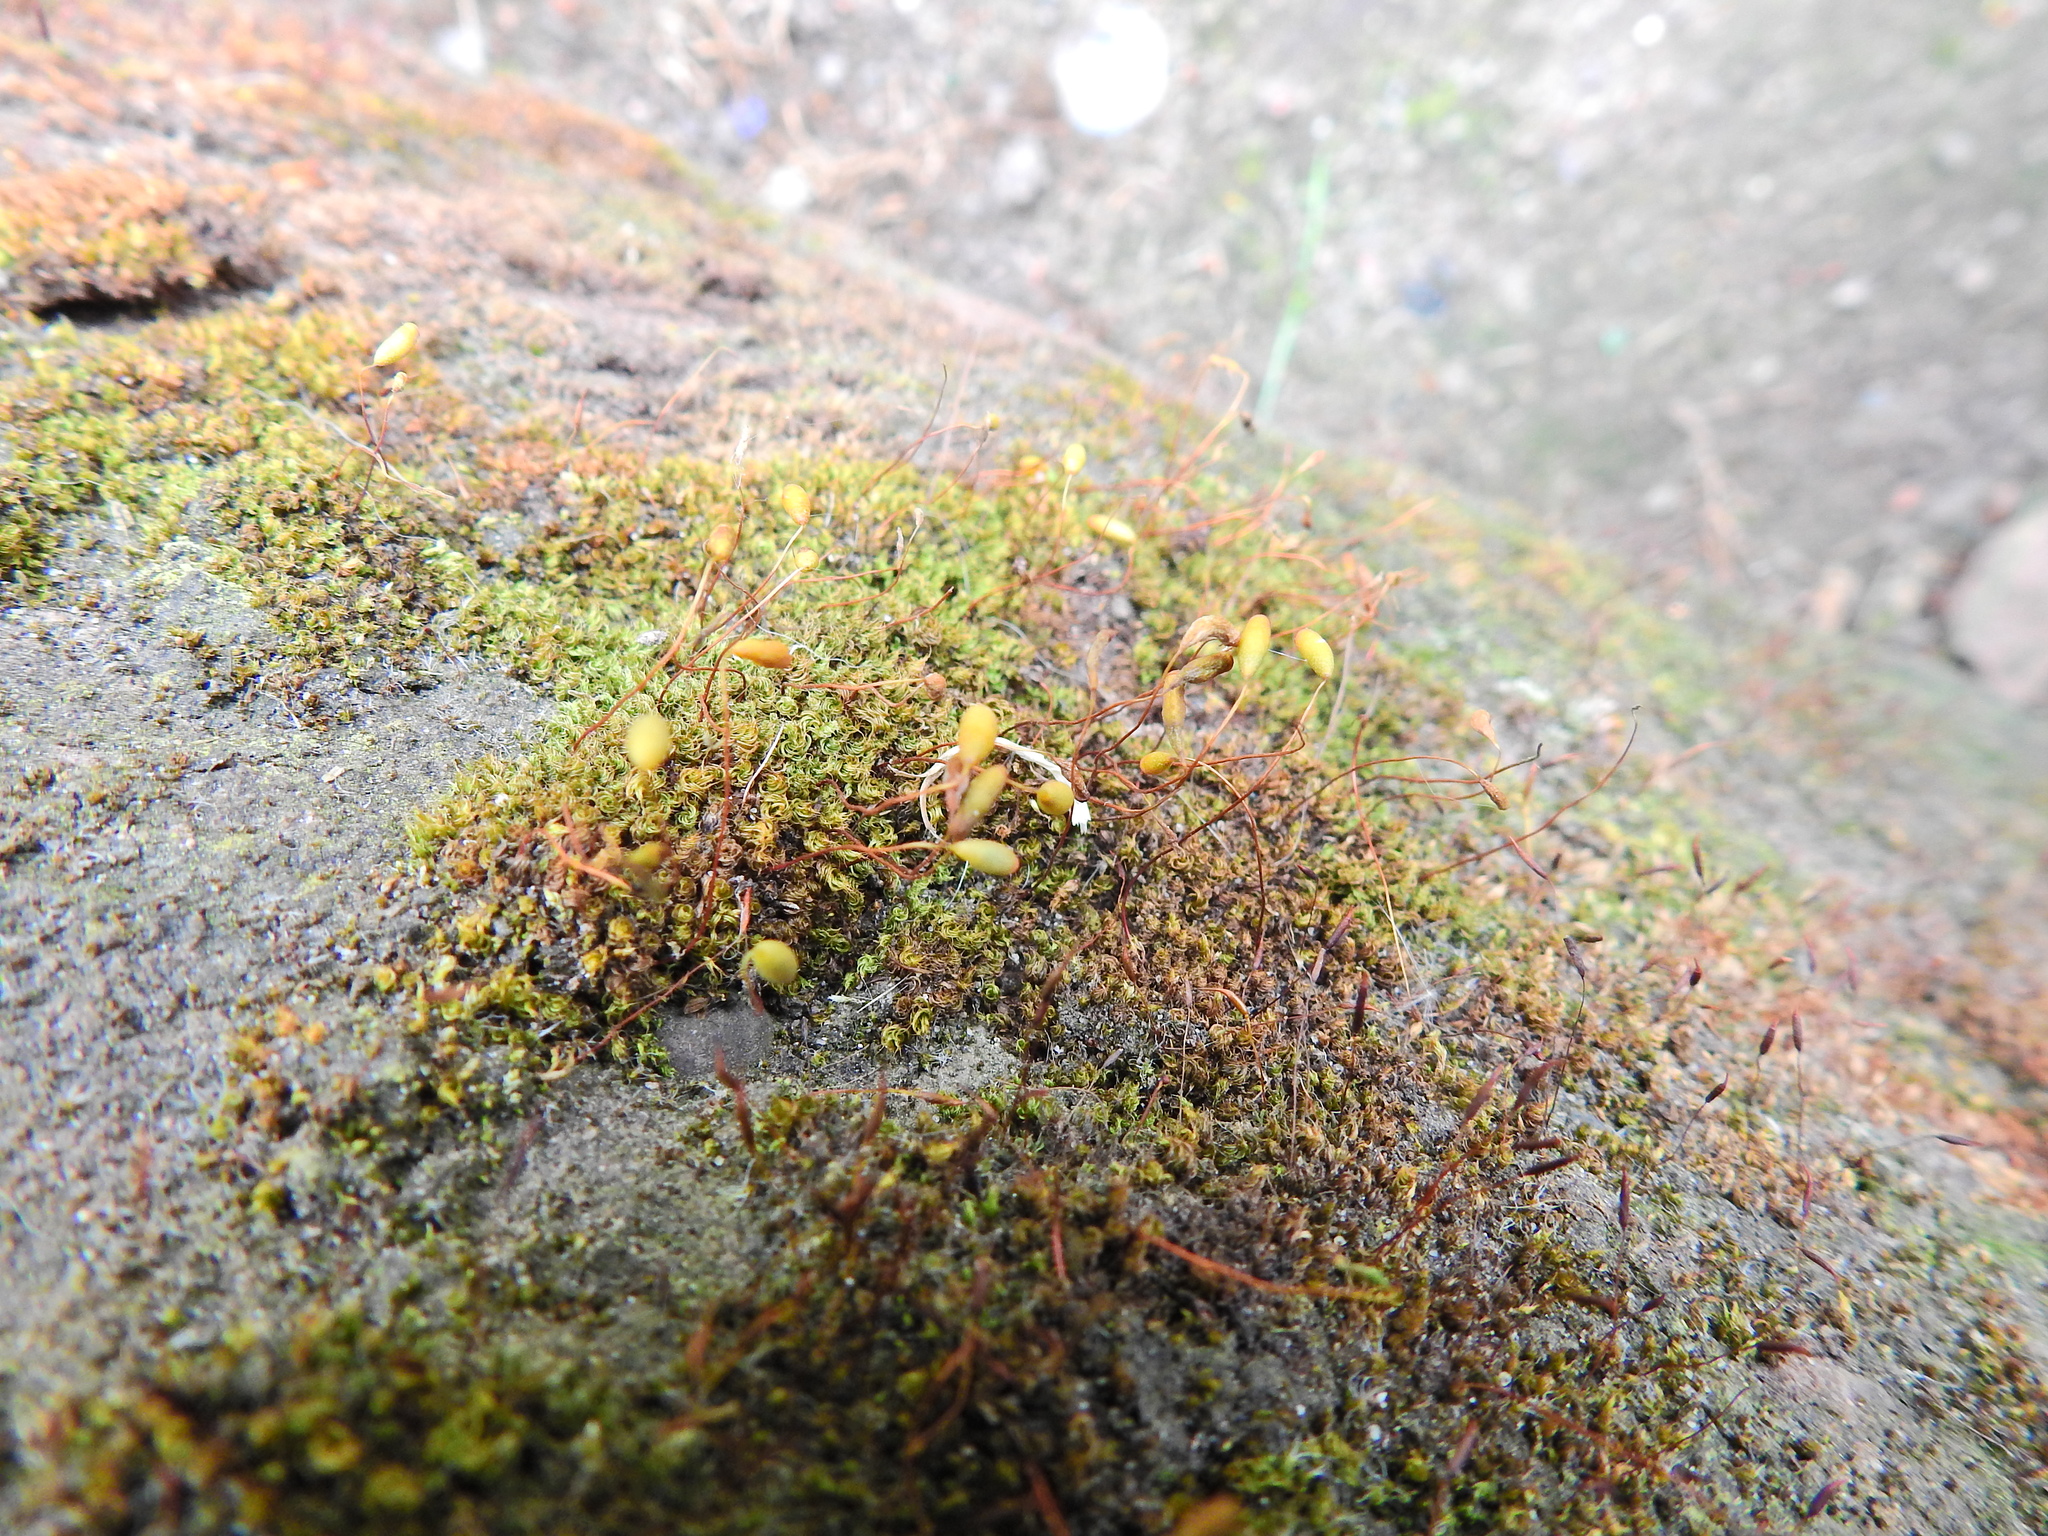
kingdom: Plantae
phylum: Bryophyta
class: Bryopsida
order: Bryales
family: Bryaceae
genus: Rosulabryum
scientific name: Rosulabryum capillare
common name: Capillary thread-moss
